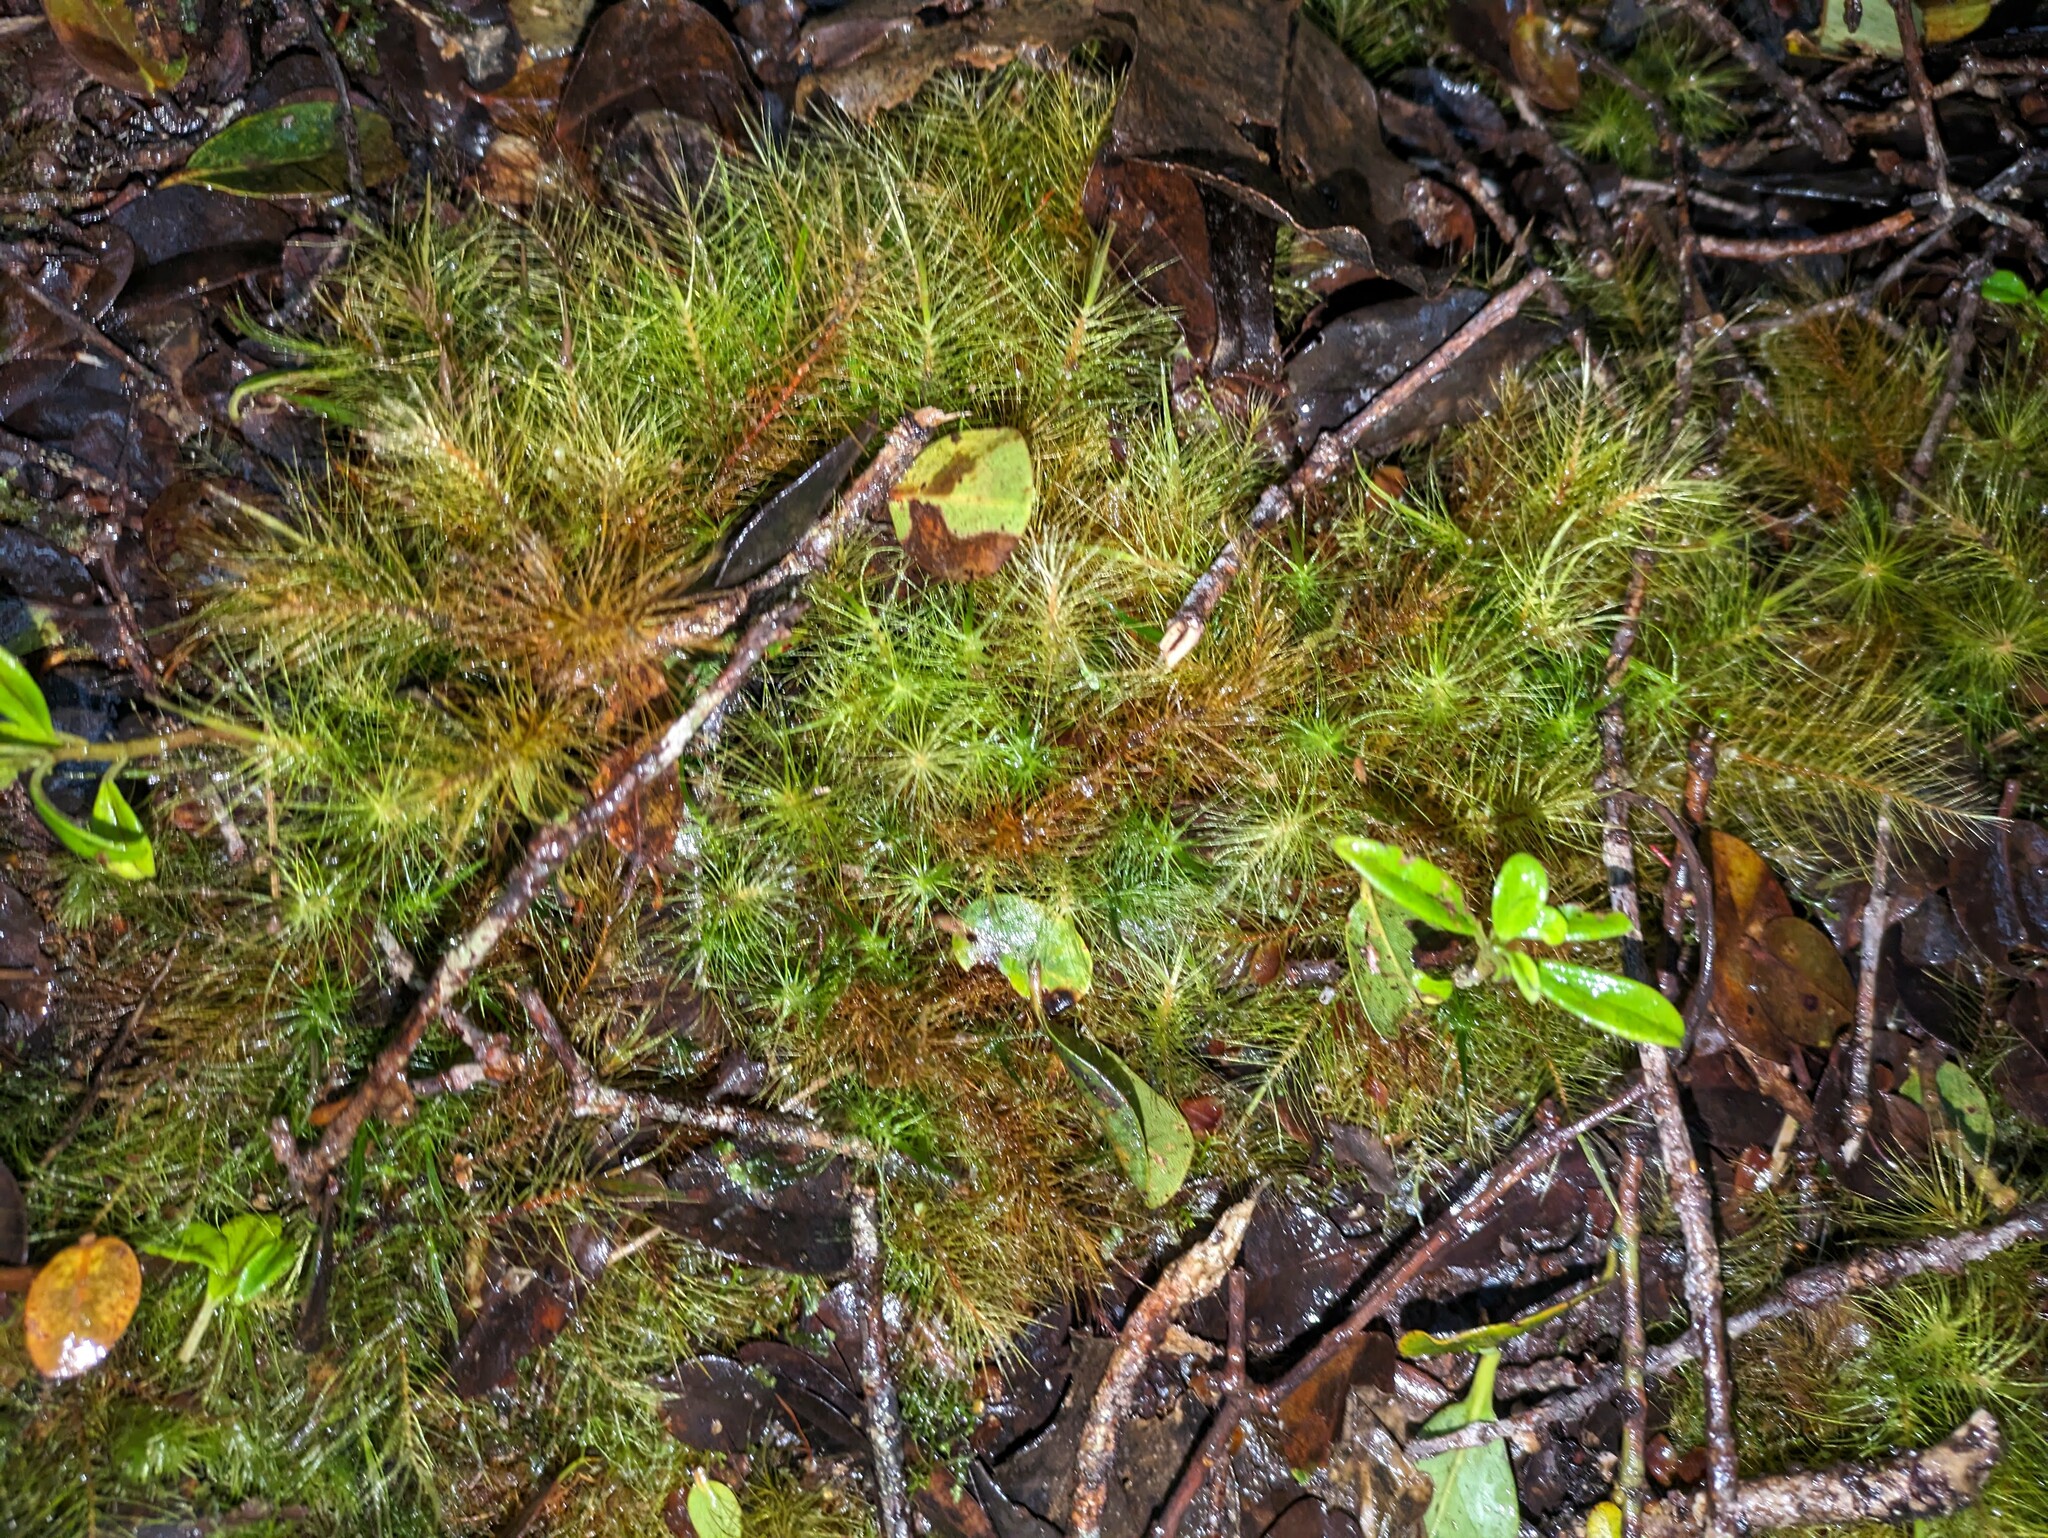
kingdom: Plantae
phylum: Bryophyta
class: Bryopsida
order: Rhizogoniales
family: Calomniaceae
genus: Pyrrhobryum
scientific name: Pyrrhobryum pungens
